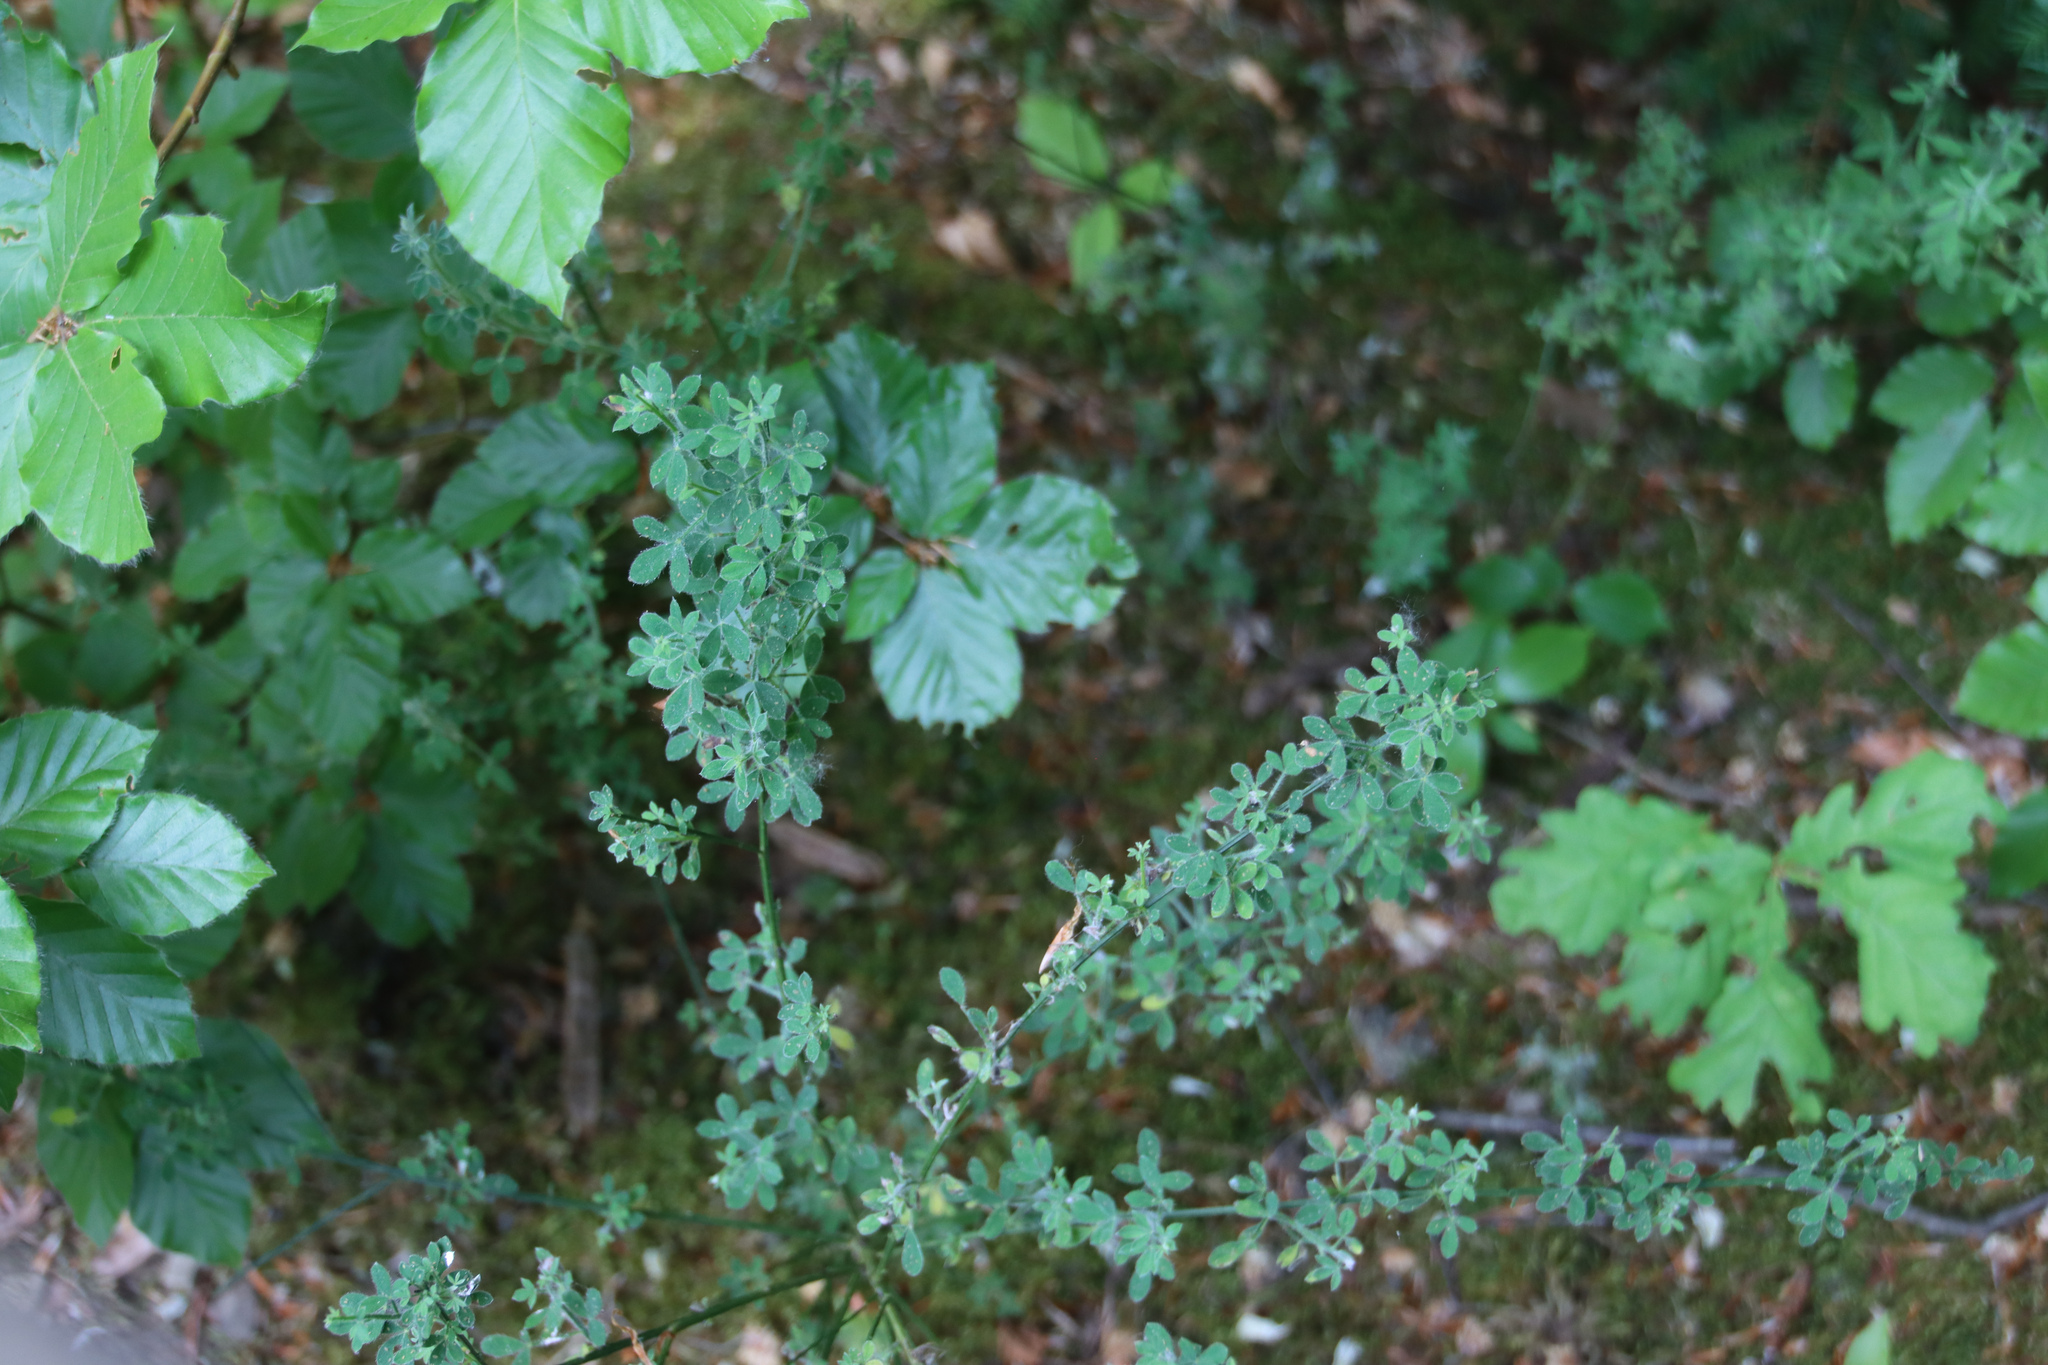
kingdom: Plantae
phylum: Tracheophyta
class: Magnoliopsida
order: Fabales
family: Fabaceae
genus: Cytisus
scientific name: Cytisus scoparius
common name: Scotch broom
